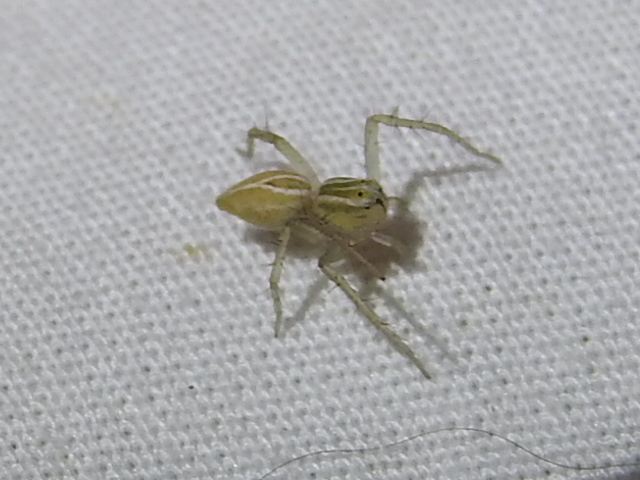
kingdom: Animalia
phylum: Arthropoda
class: Arachnida
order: Araneae
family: Oxyopidae
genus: Oxyopes
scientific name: Oxyopes salticus
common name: Lynx spiders
